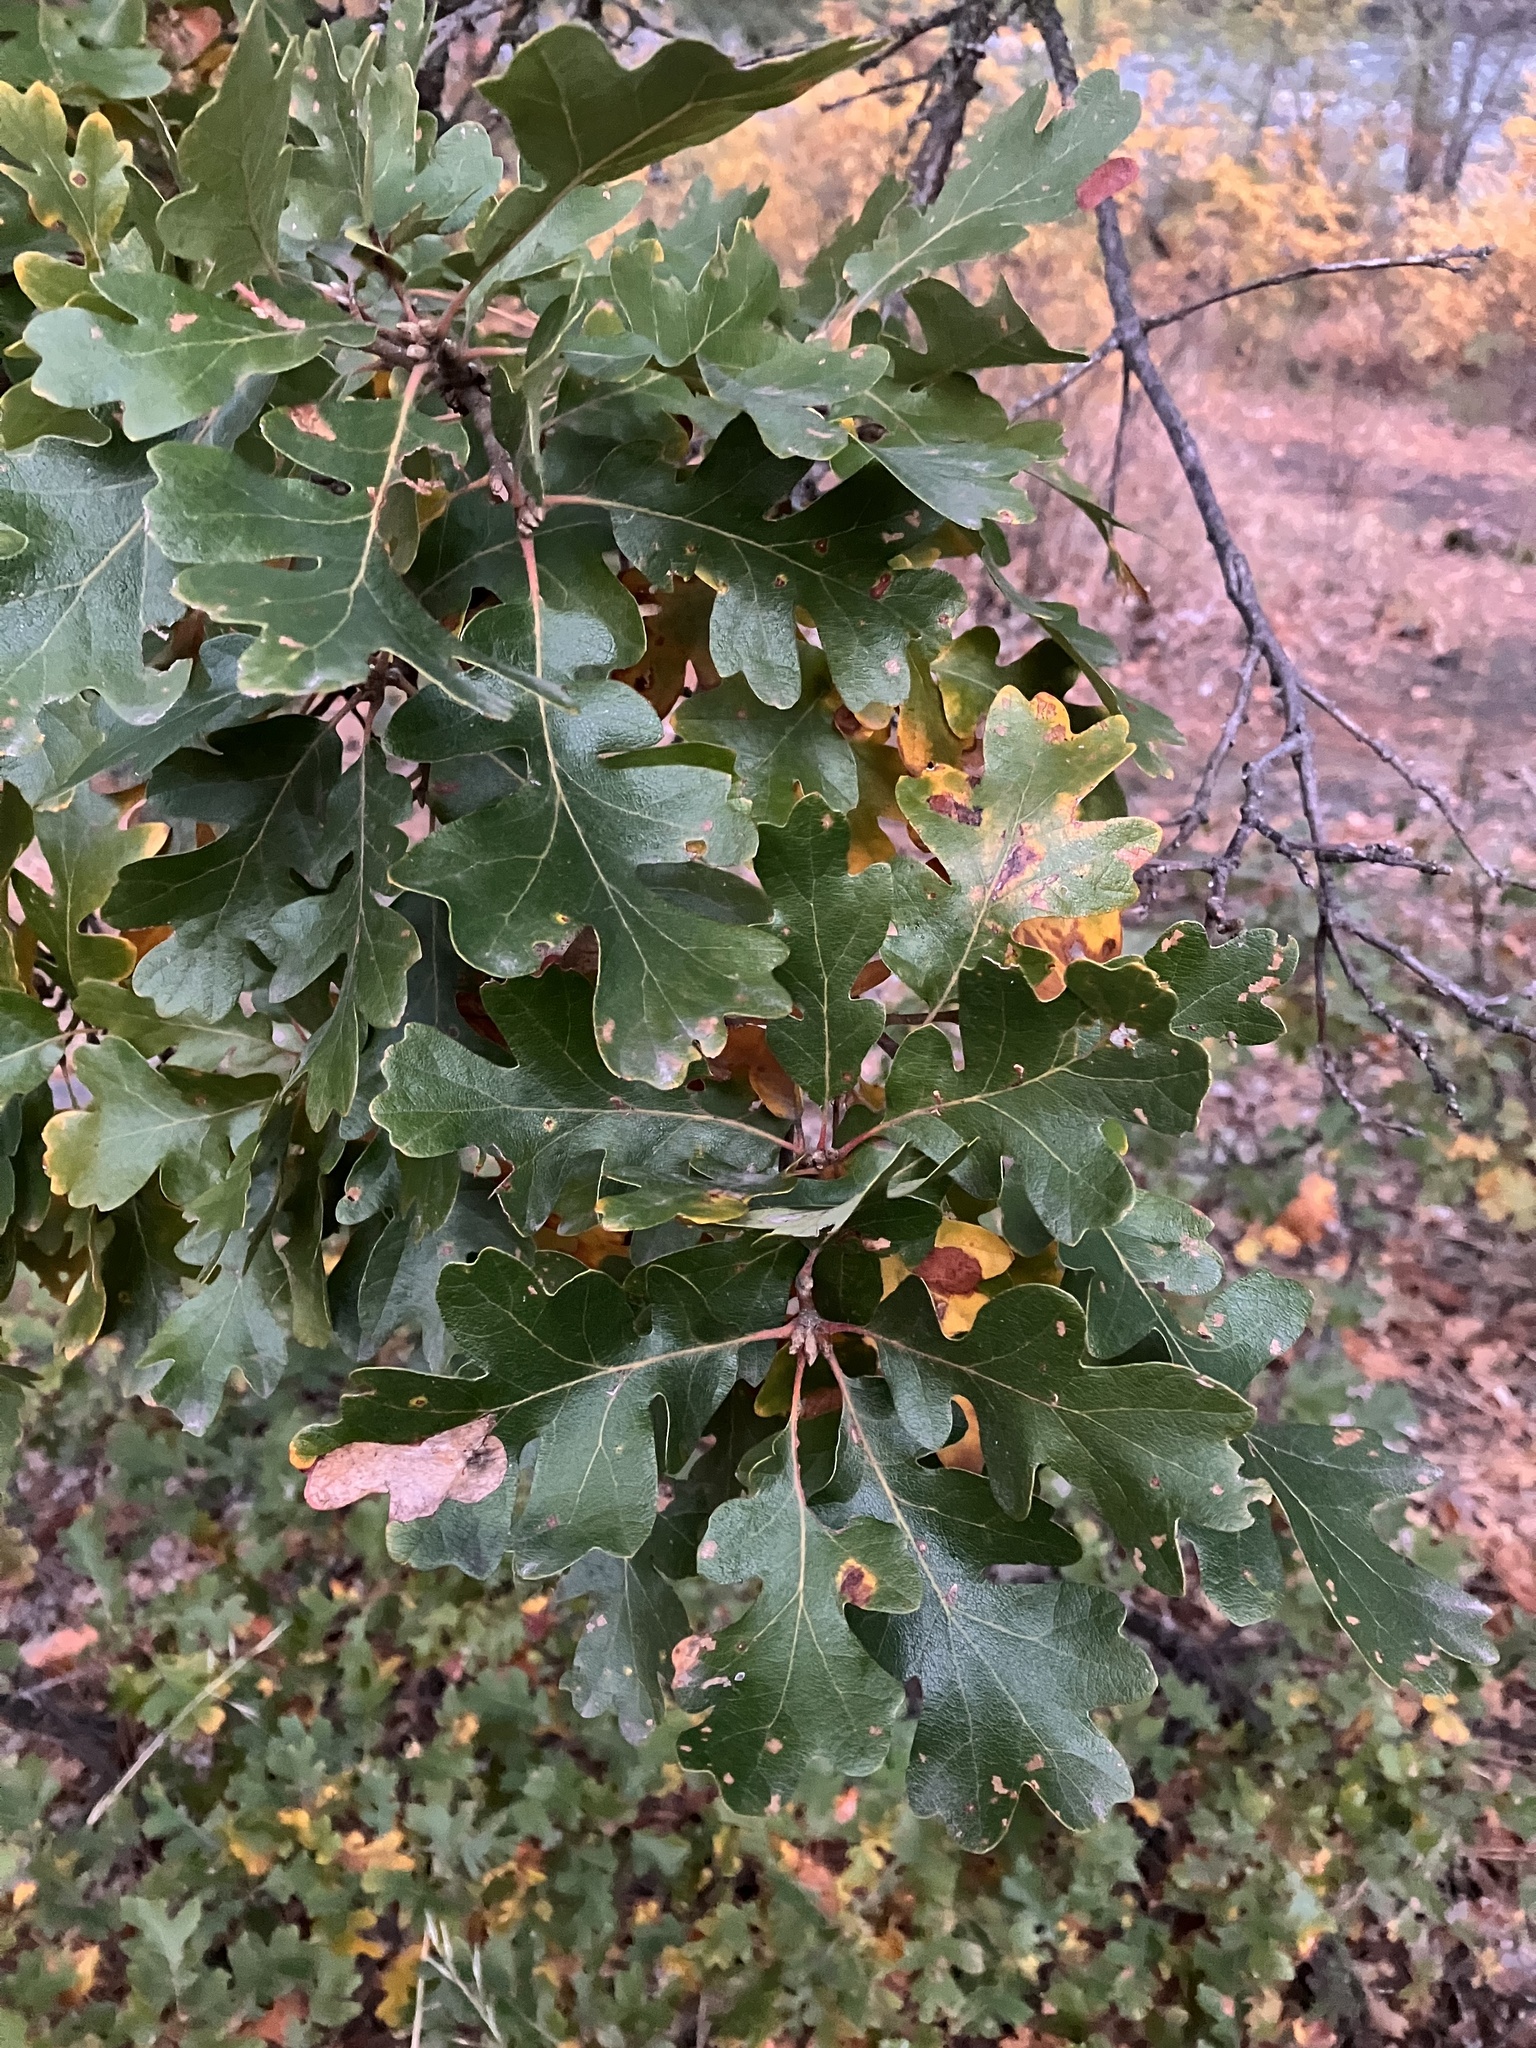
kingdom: Plantae
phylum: Tracheophyta
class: Magnoliopsida
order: Fagales
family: Fagaceae
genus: Quercus
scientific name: Quercus garryana
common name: Garry oak
